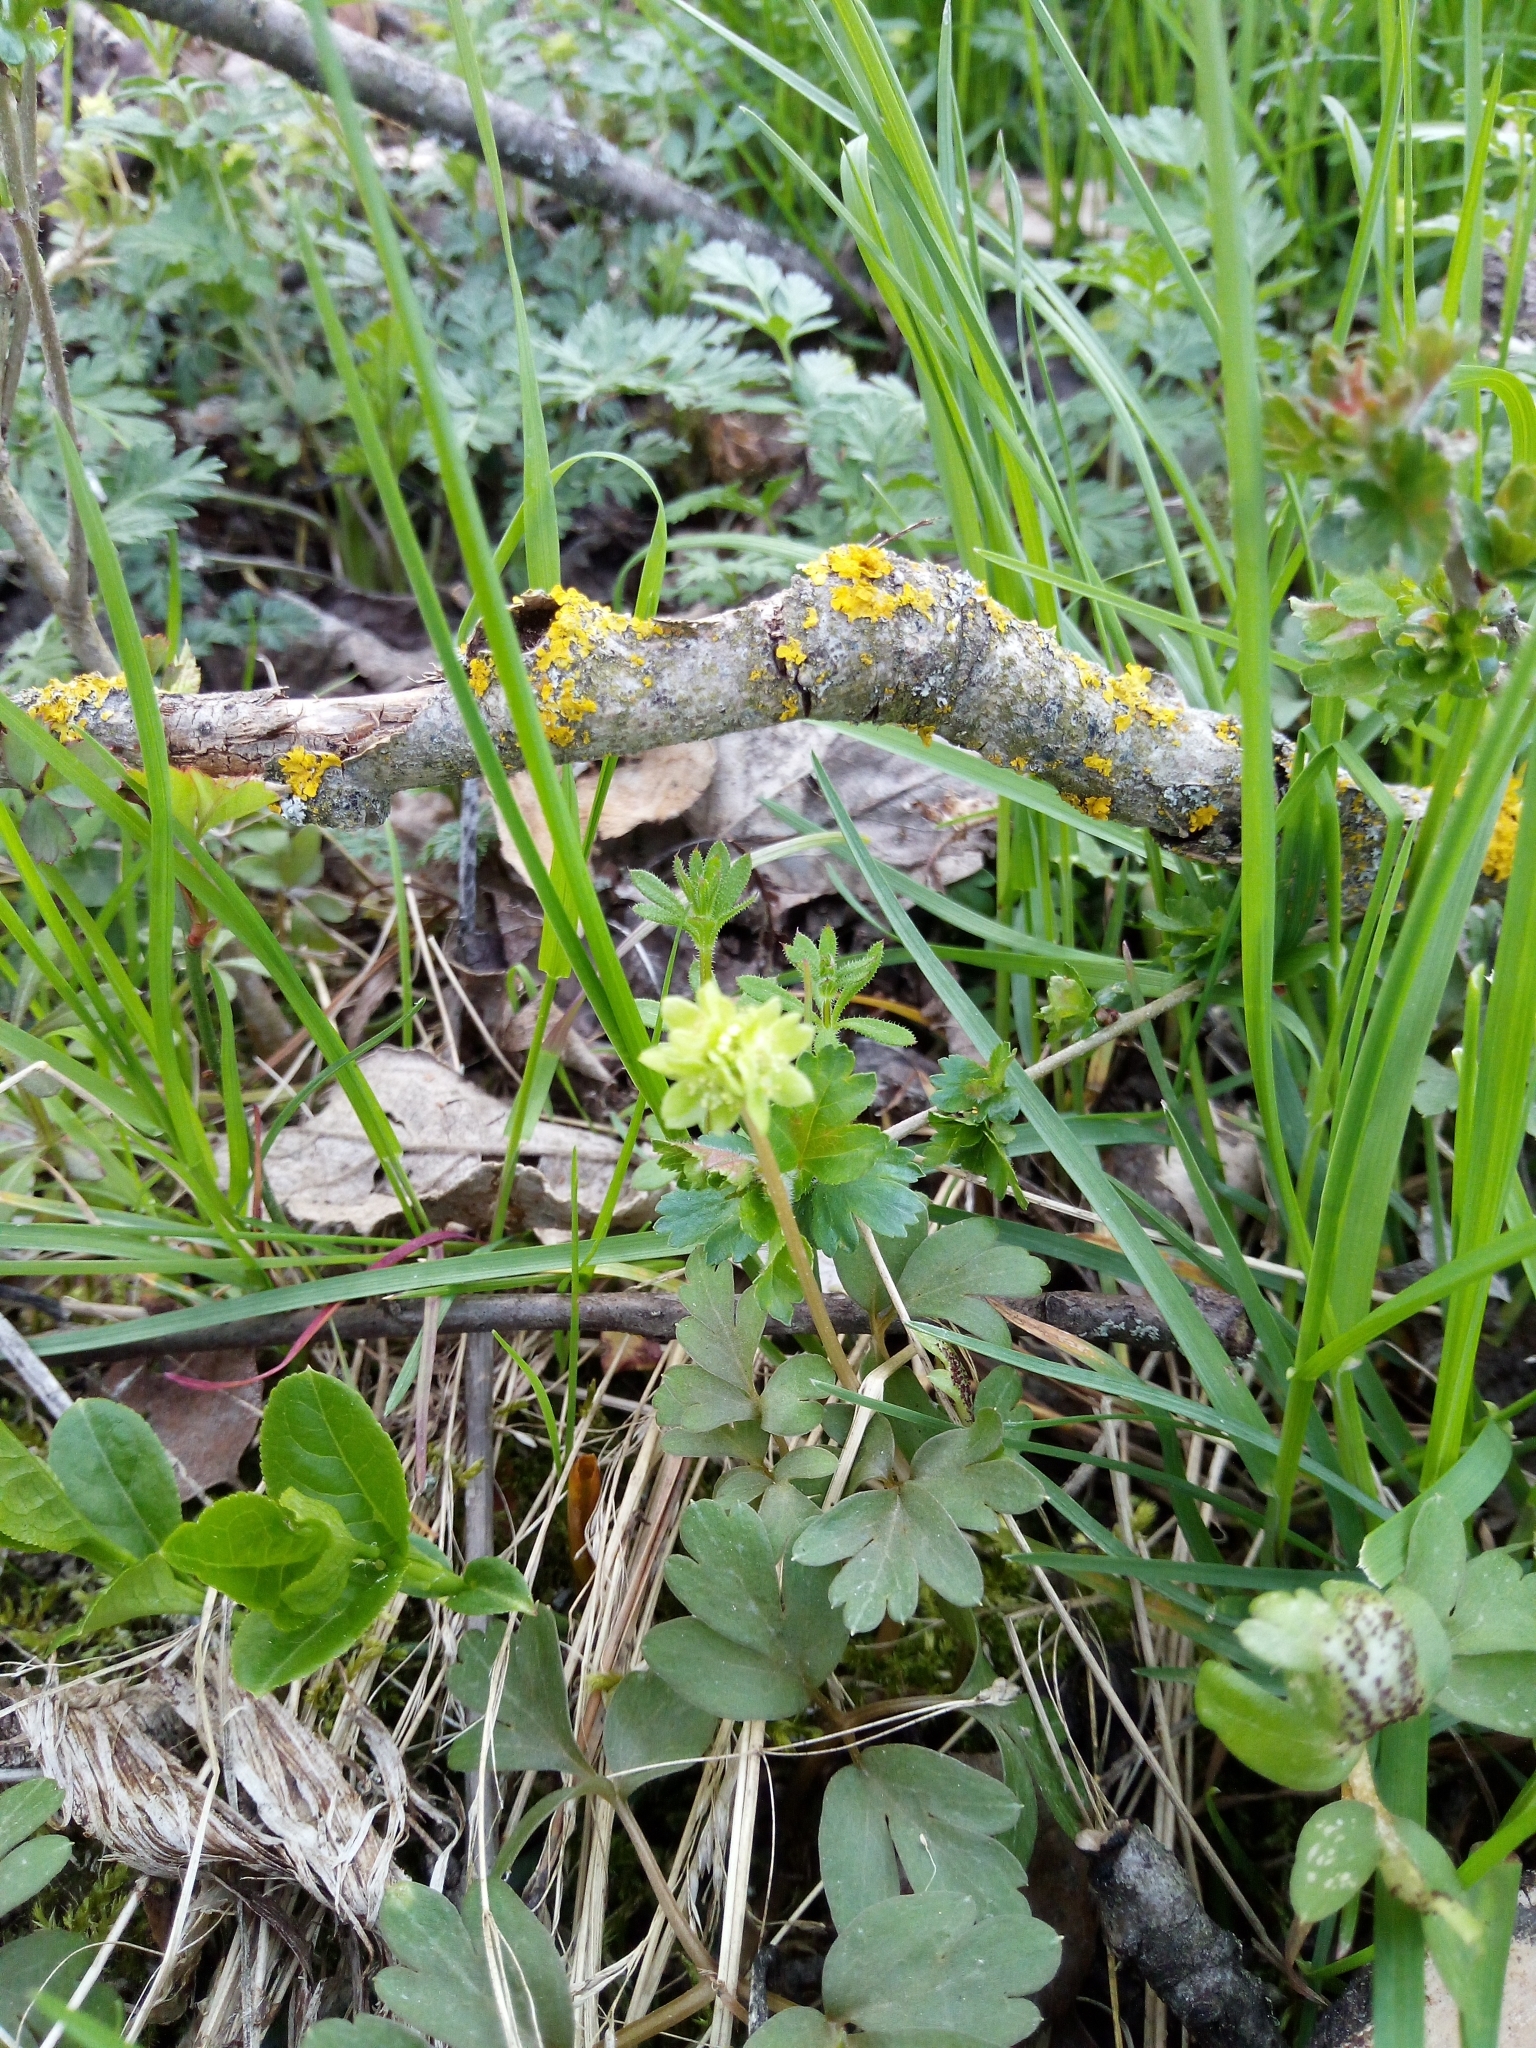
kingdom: Plantae
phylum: Tracheophyta
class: Magnoliopsida
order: Dipsacales
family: Viburnaceae
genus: Adoxa
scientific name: Adoxa moschatellina
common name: Moschatel
